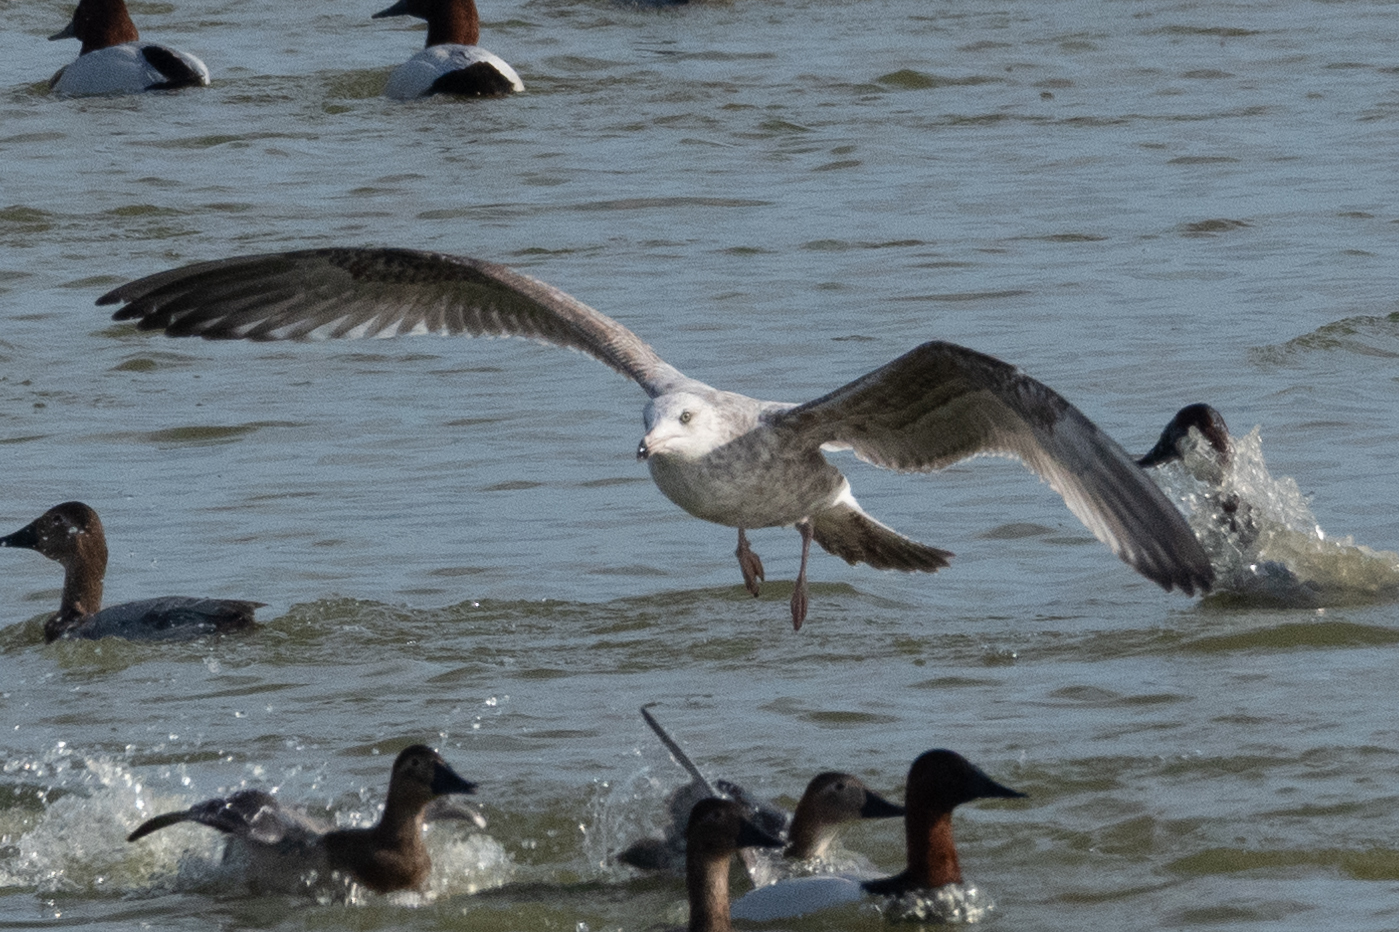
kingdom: Animalia
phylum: Chordata
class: Aves
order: Charadriiformes
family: Laridae
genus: Larus
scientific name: Larus argentatus
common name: Herring gull
